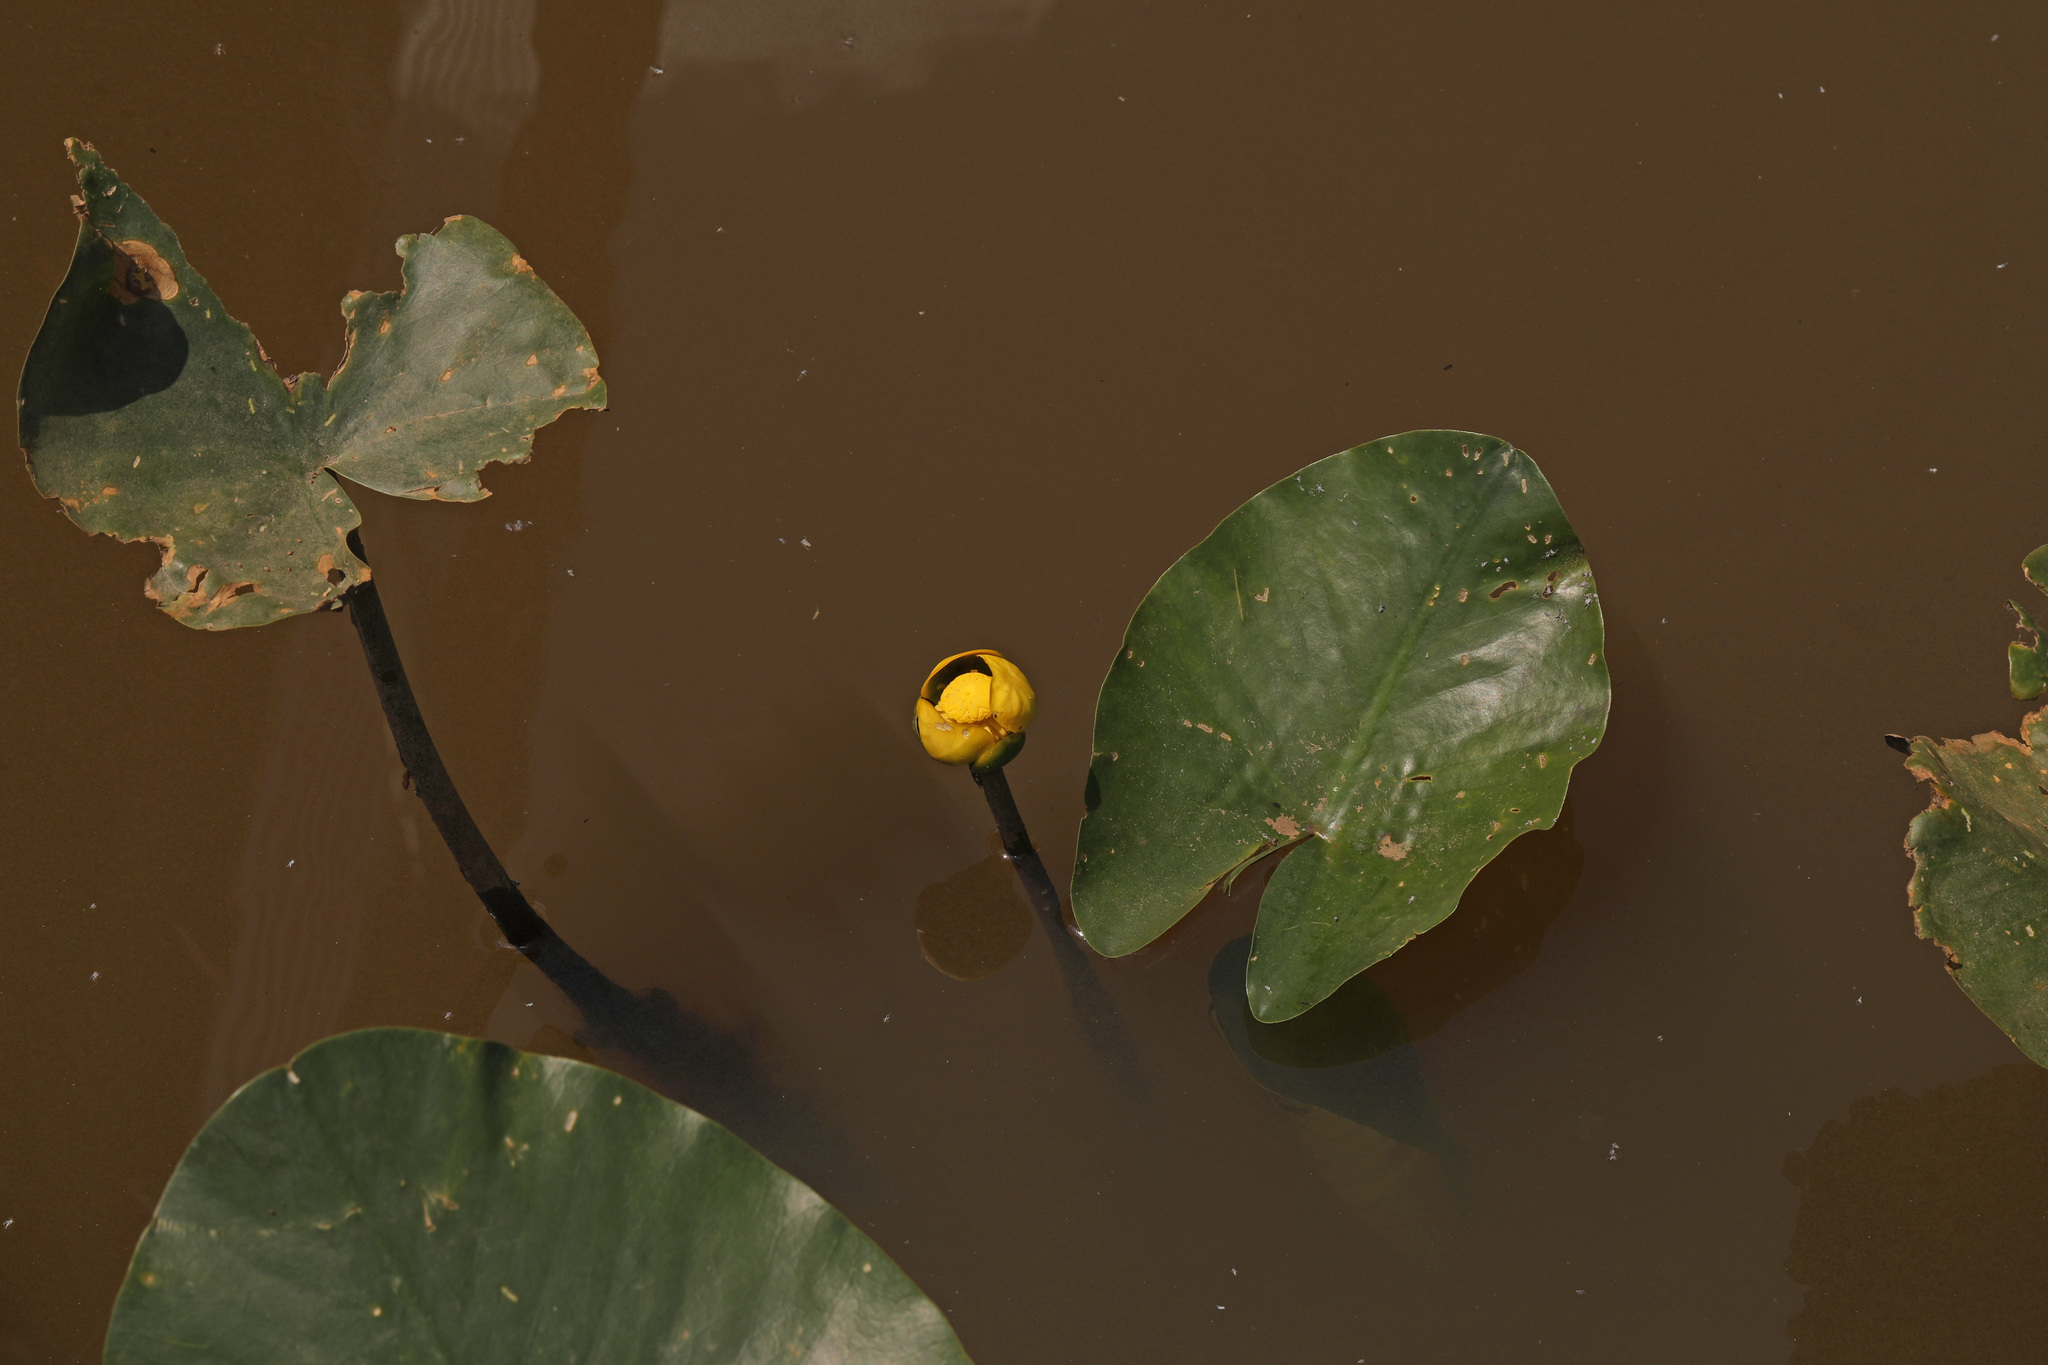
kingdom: Plantae
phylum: Tracheophyta
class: Magnoliopsida
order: Nymphaeales
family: Nymphaeaceae
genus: Nuphar
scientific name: Nuphar advena
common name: Spatter-dock
